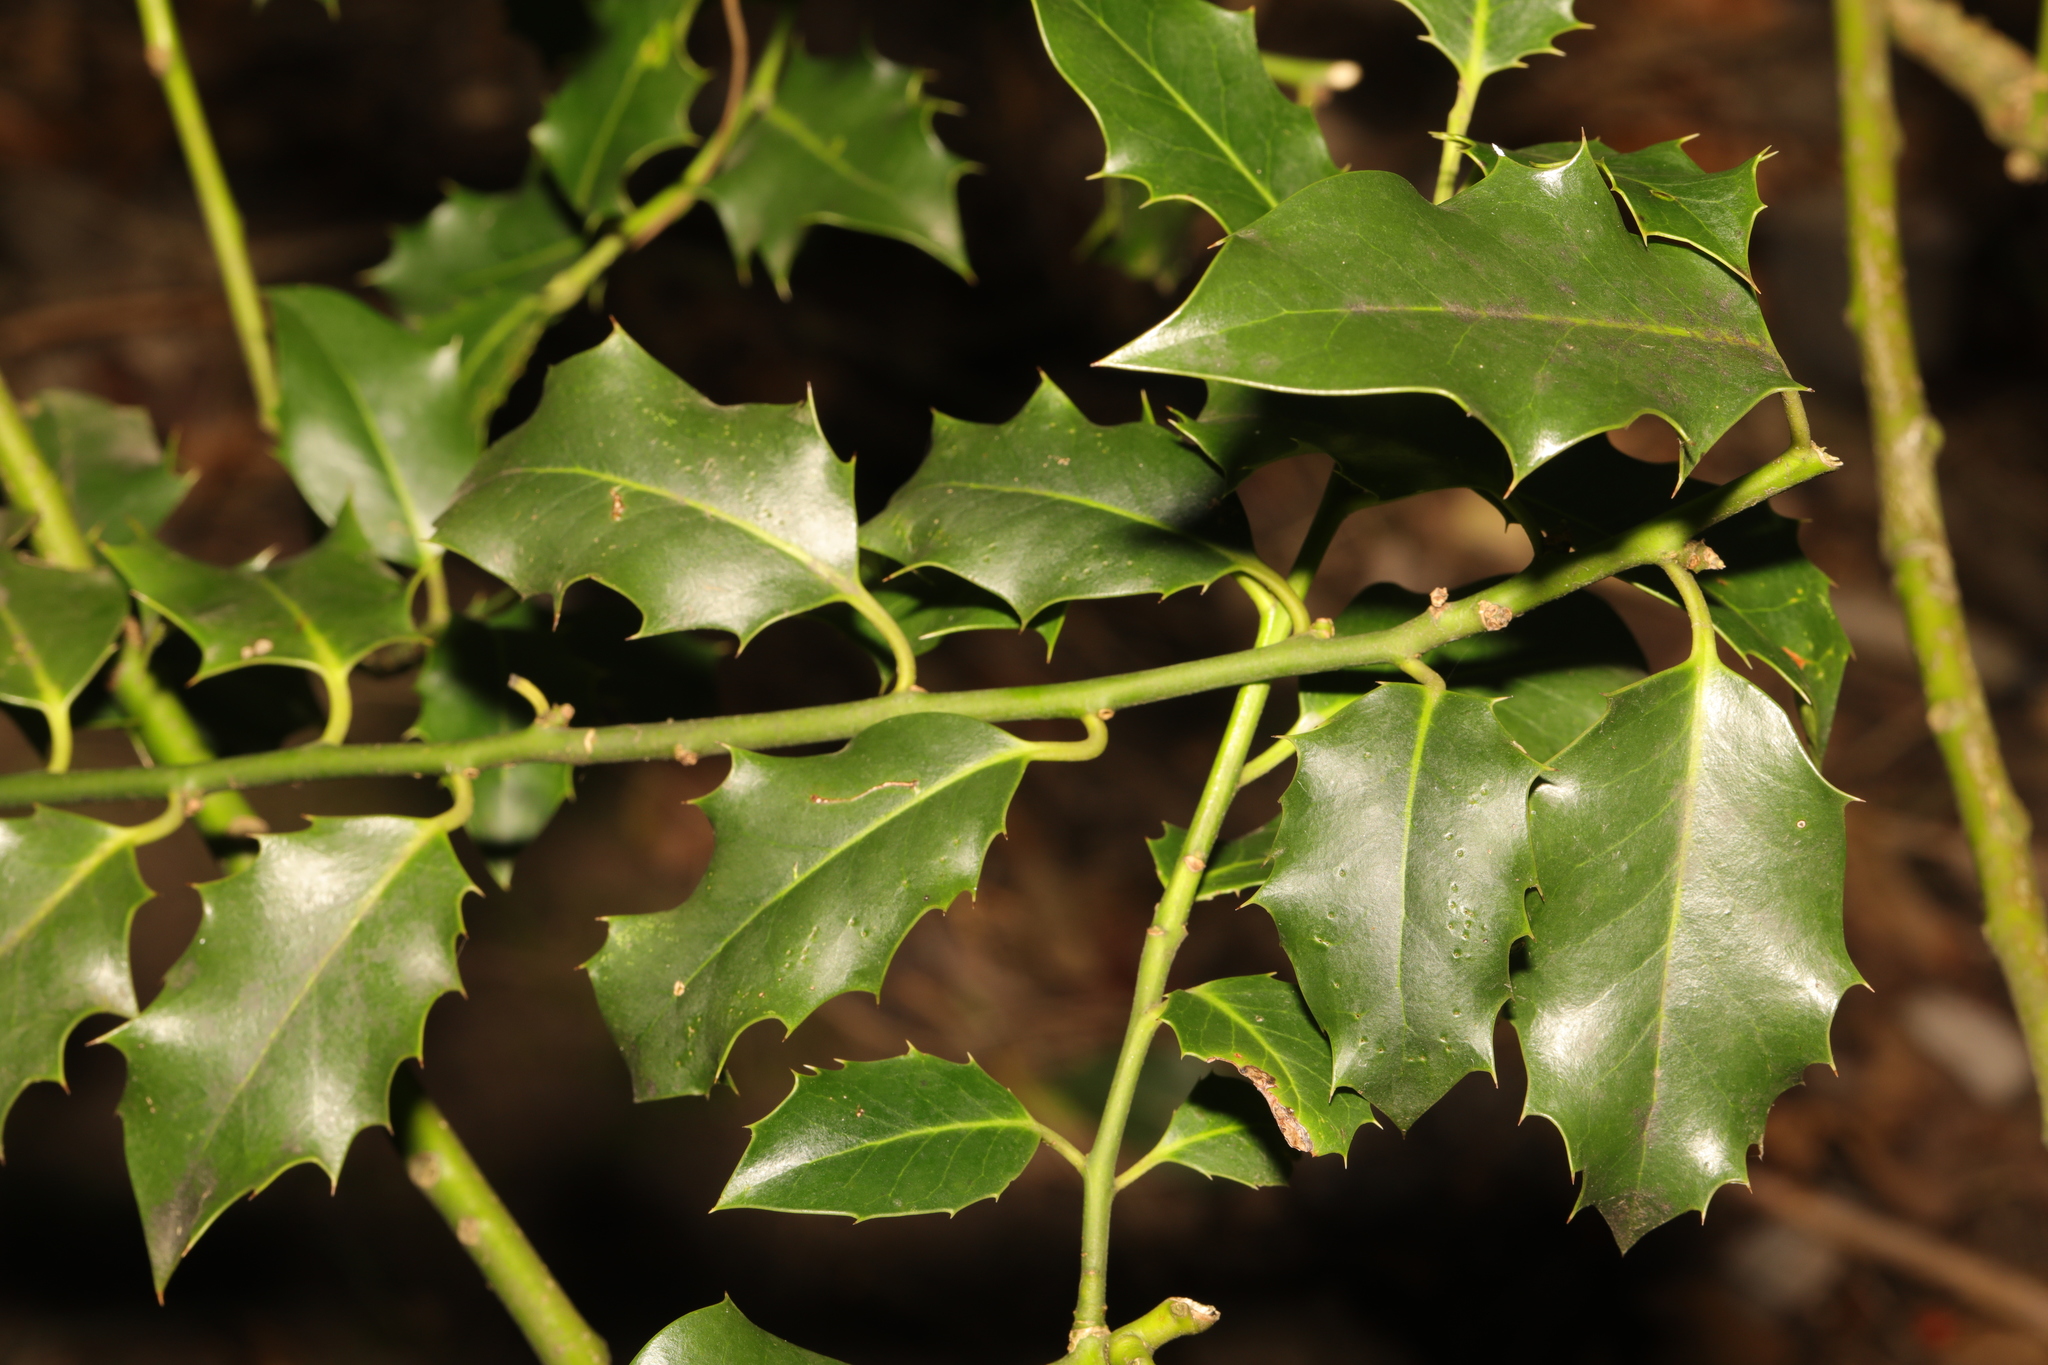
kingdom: Plantae
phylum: Tracheophyta
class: Magnoliopsida
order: Aquifoliales
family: Aquifoliaceae
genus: Ilex
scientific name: Ilex aquifolium
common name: English holly
